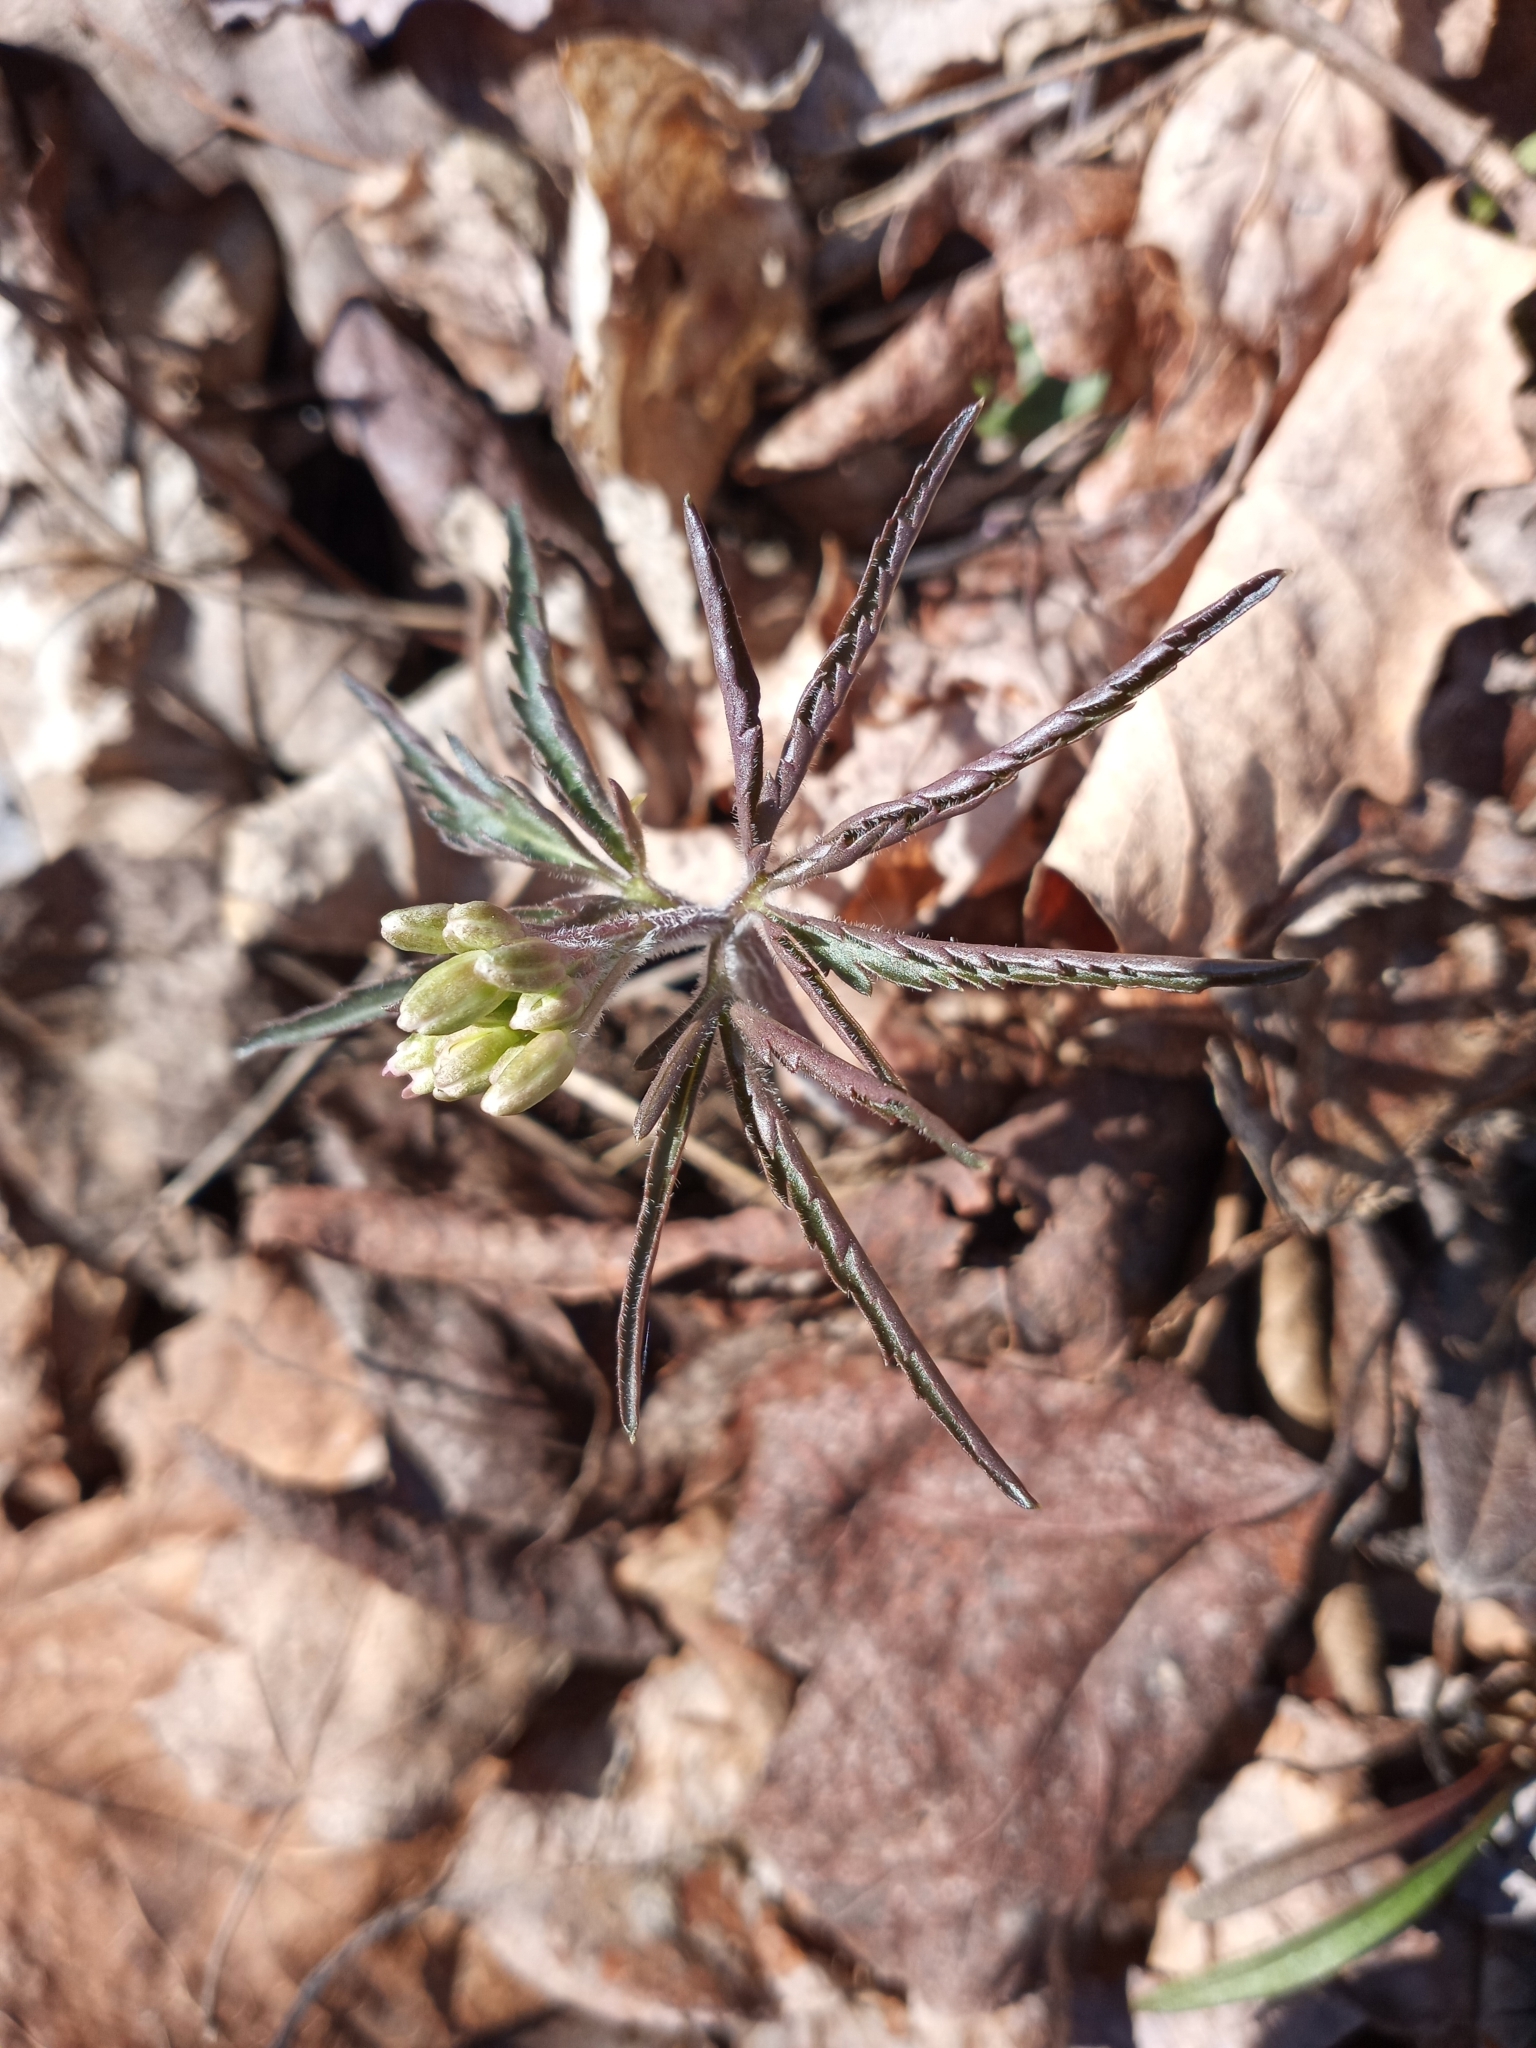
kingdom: Plantae
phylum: Tracheophyta
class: Magnoliopsida
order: Brassicales
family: Brassicaceae
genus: Cardamine
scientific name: Cardamine concatenata
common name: Cut-leaf toothcup
